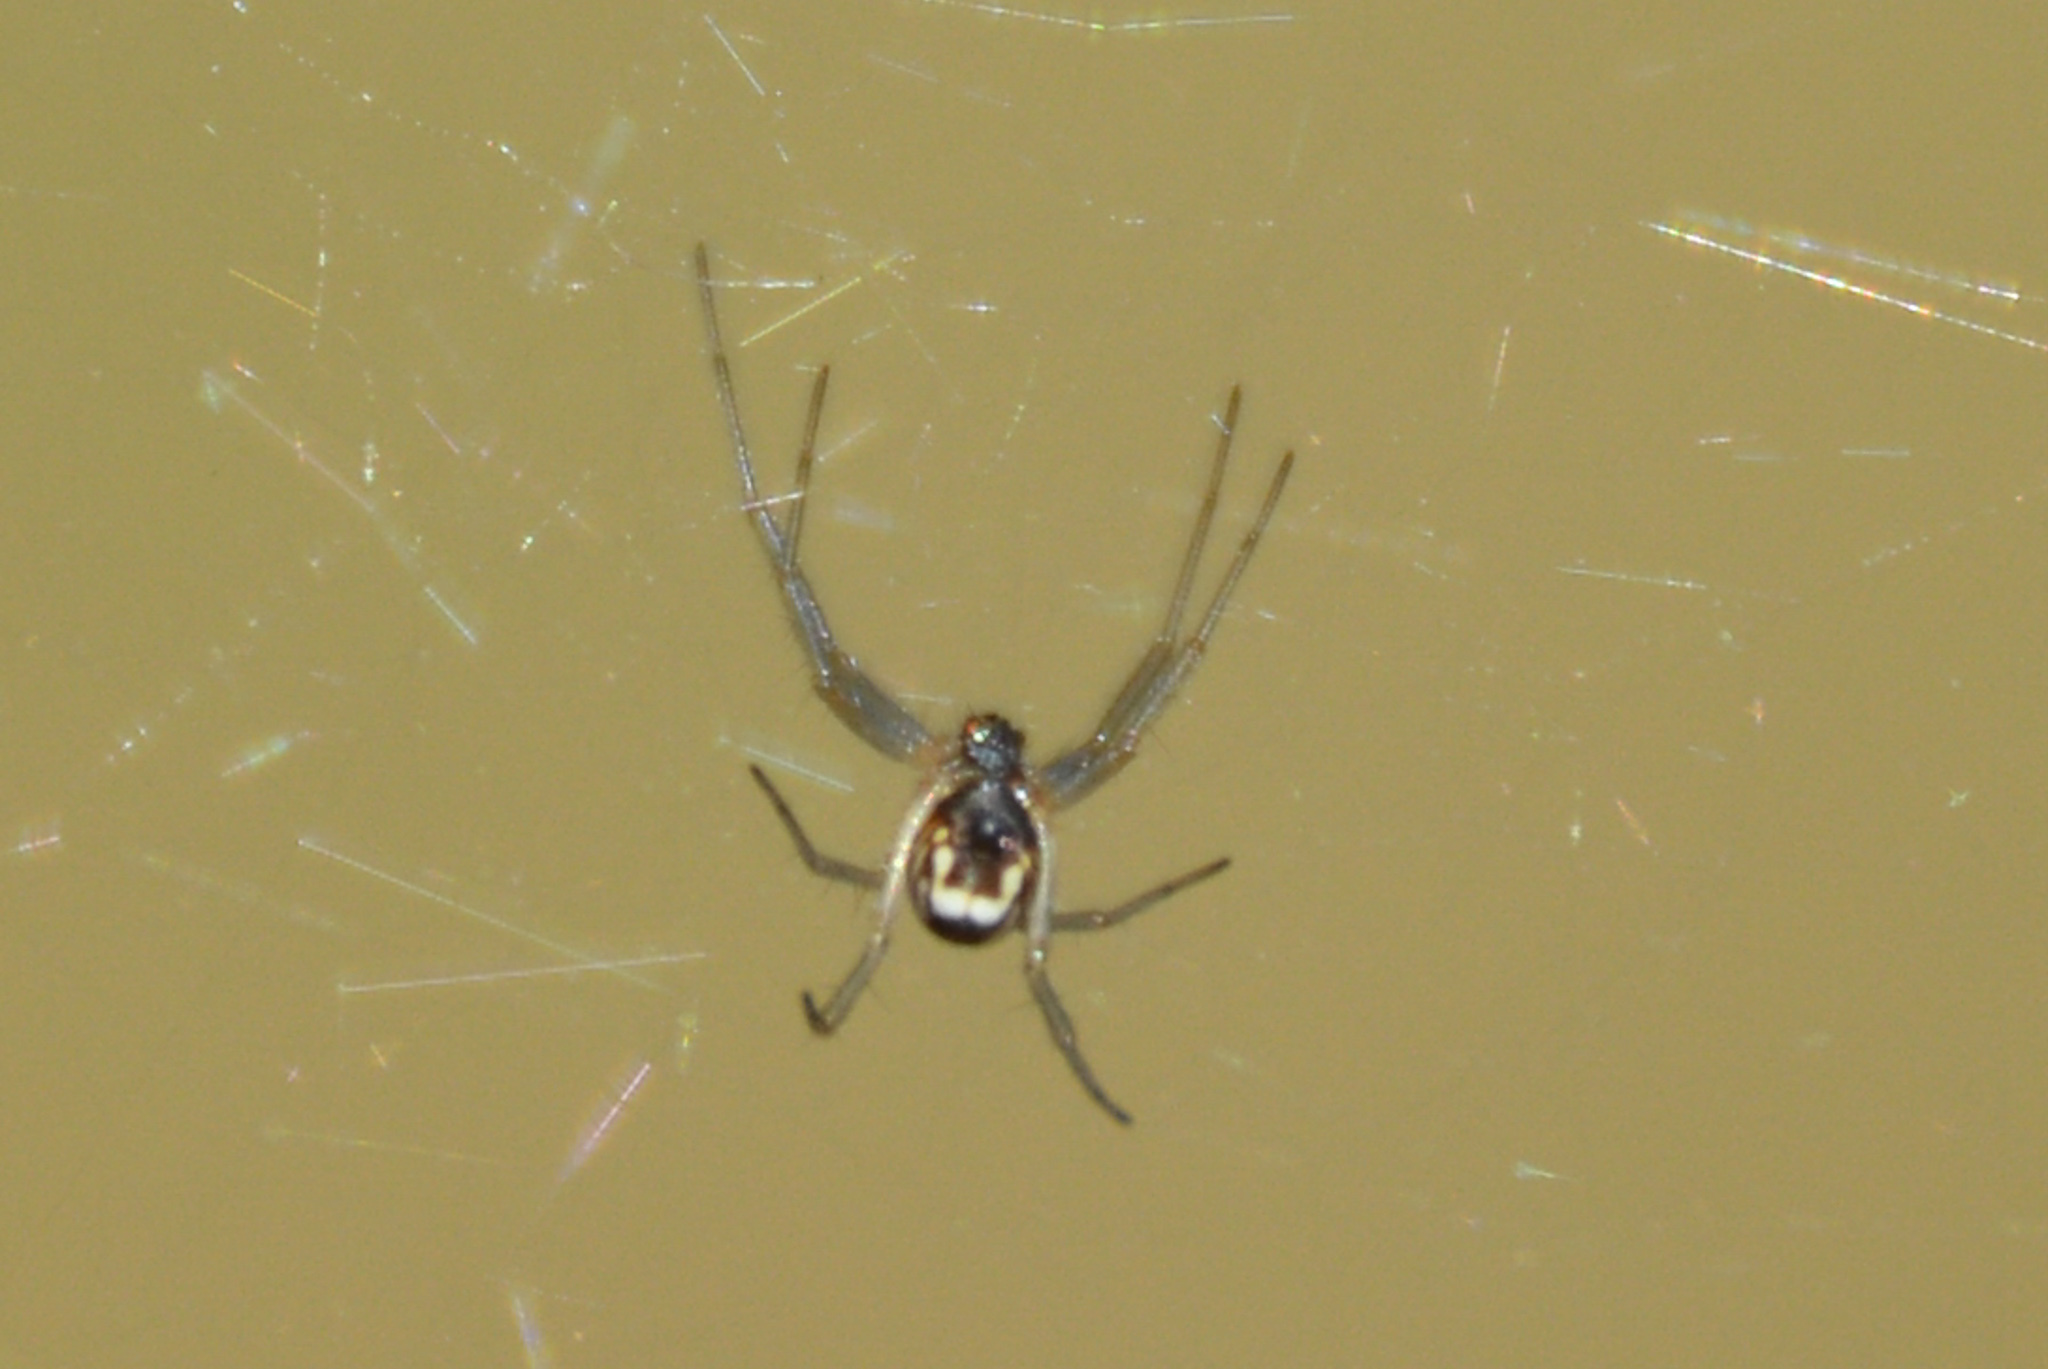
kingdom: Animalia
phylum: Arthropoda
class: Arachnida
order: Araneae
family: Linyphiidae
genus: Frontinella
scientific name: Frontinella pyramitela
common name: Bowl-and-doily spider
